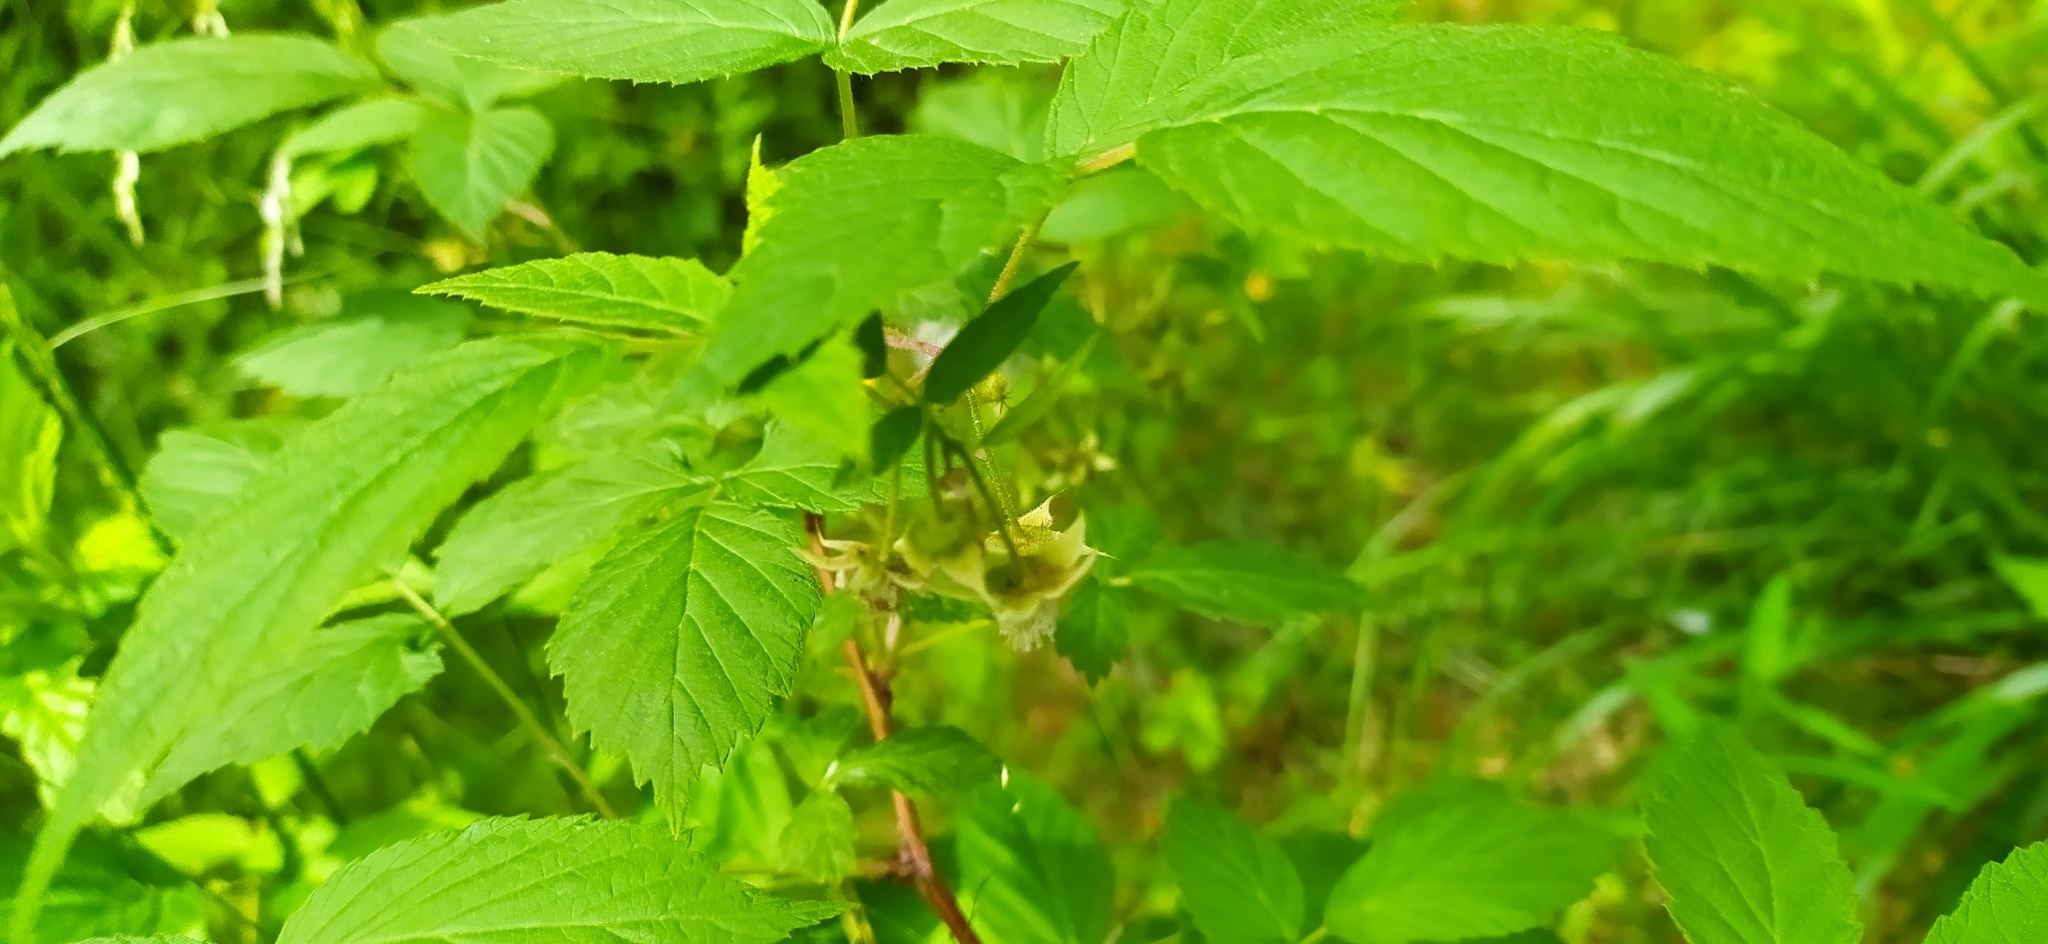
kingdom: Plantae
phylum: Tracheophyta
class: Magnoliopsida
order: Rosales
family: Rosaceae
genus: Rubus
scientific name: Rubus idaeus
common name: Raspberry
